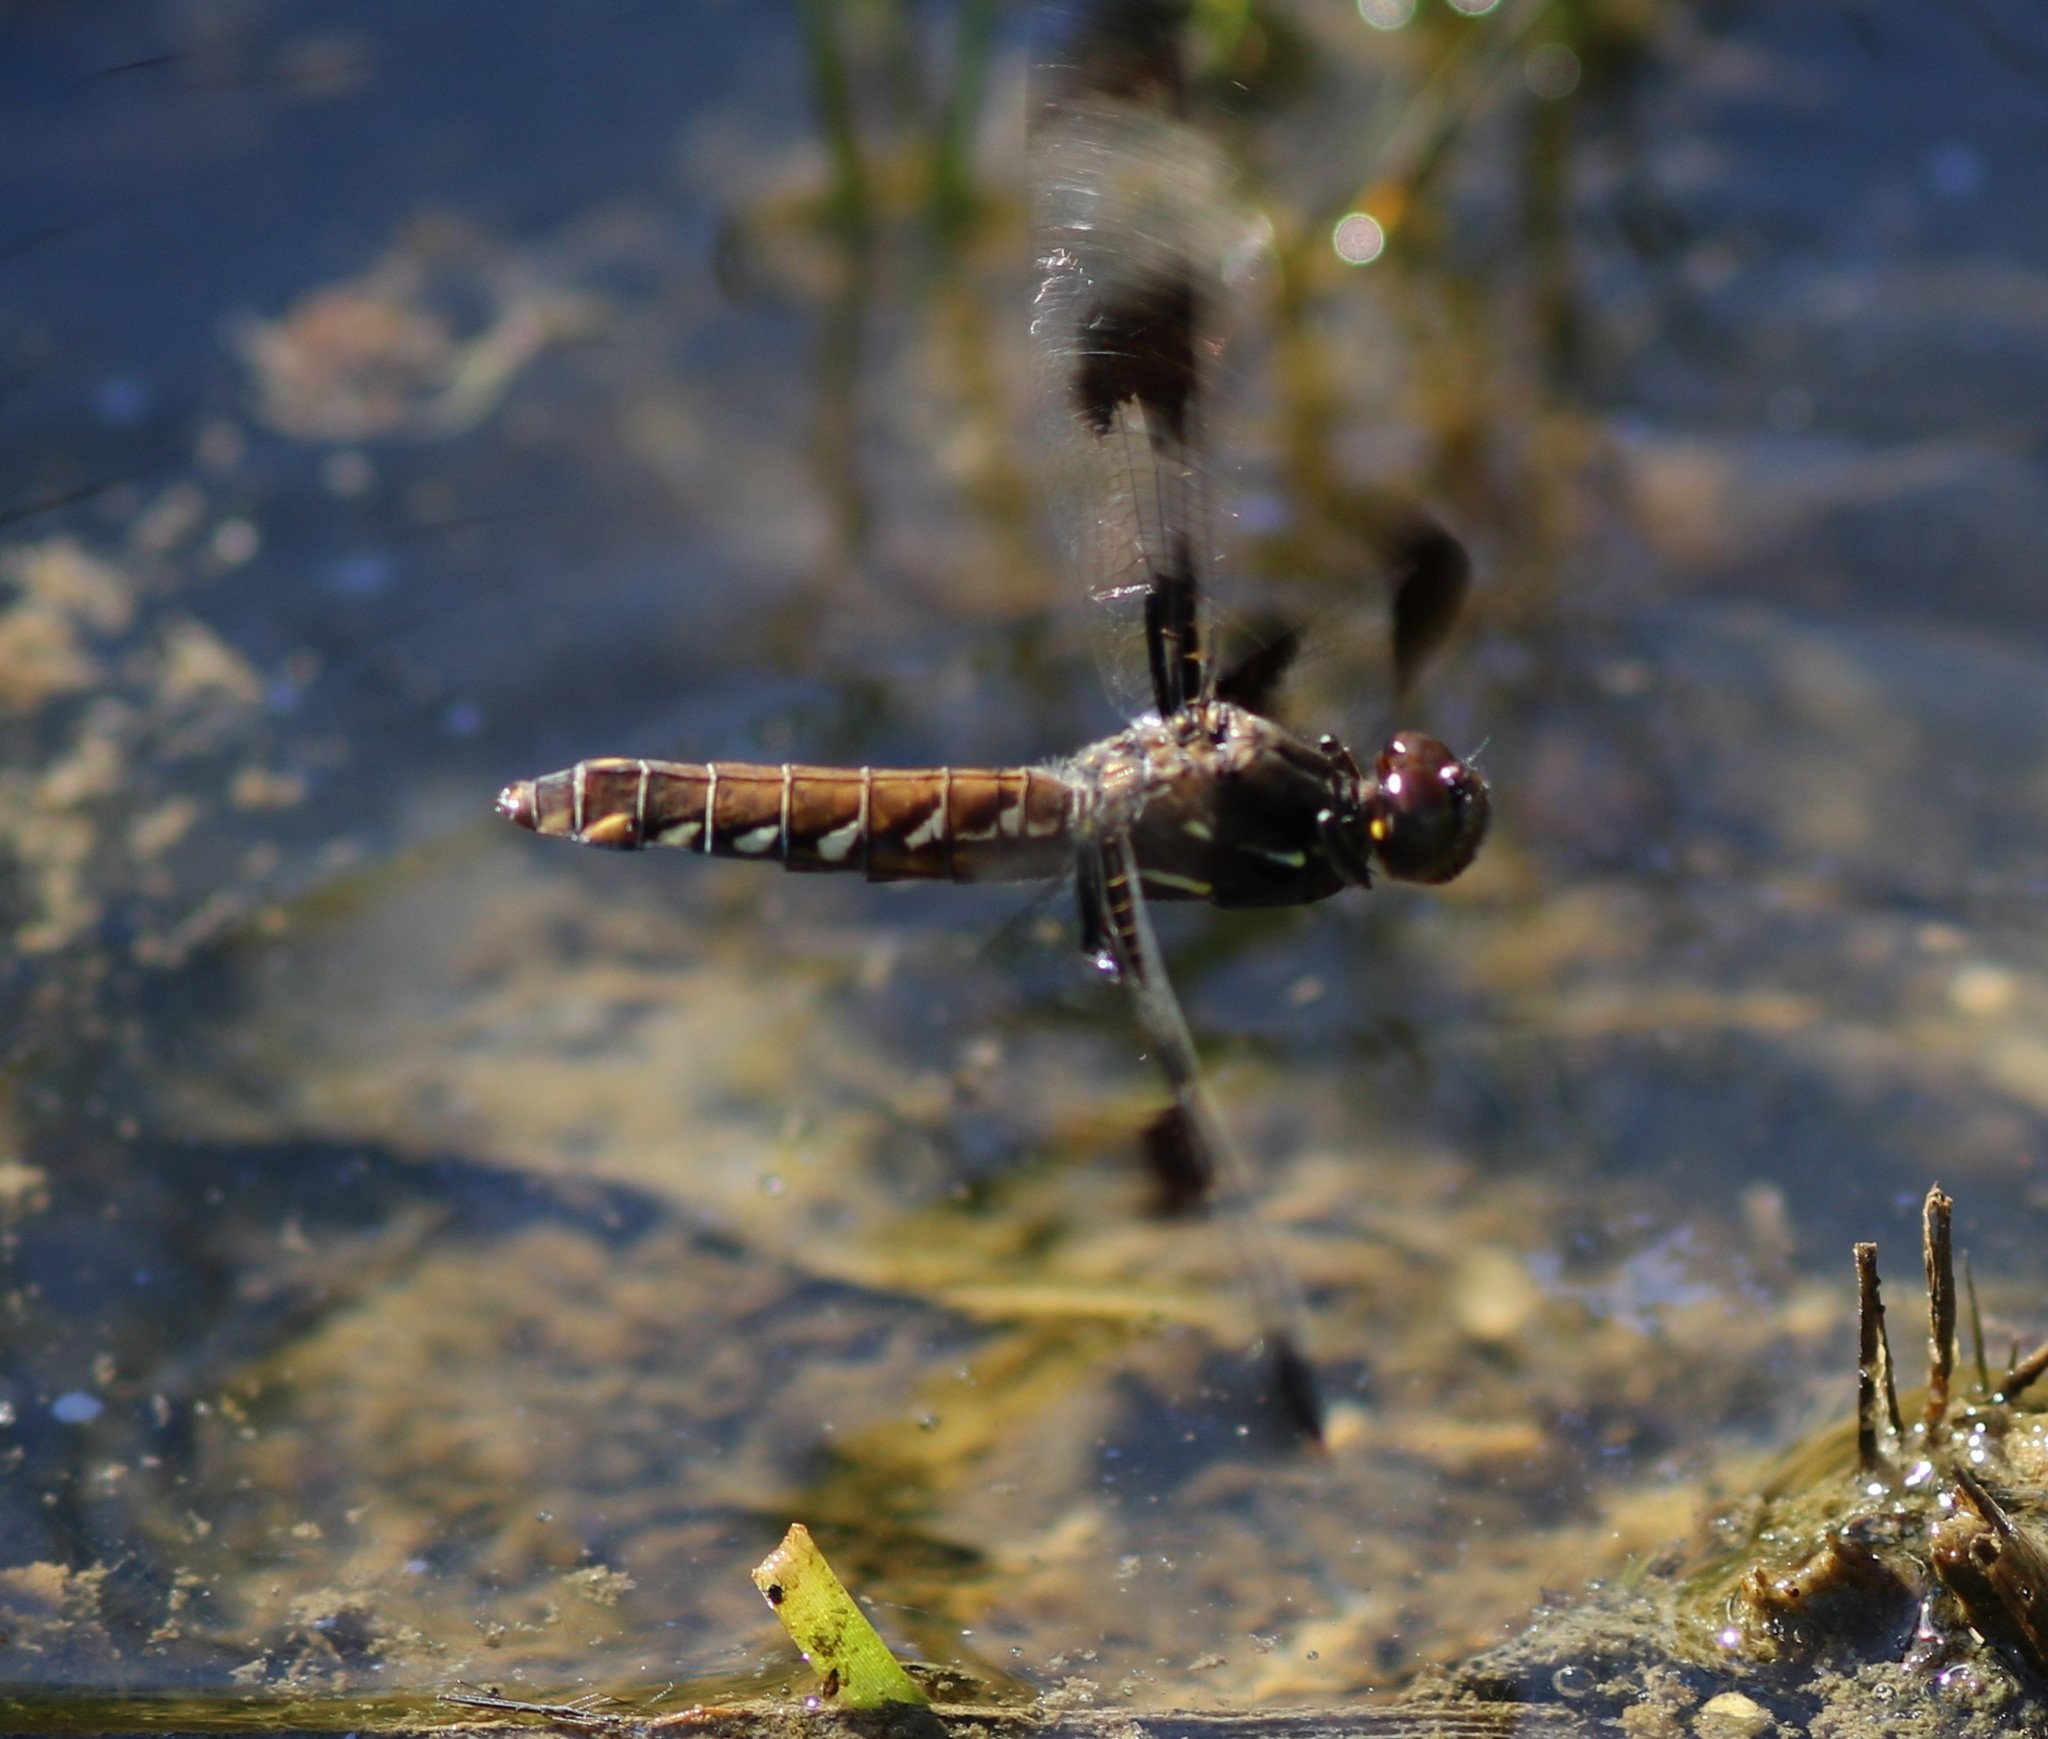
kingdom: Animalia
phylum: Arthropoda
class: Insecta
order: Odonata
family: Libellulidae
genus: Plathemis
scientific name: Plathemis lydia
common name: Common whitetail
